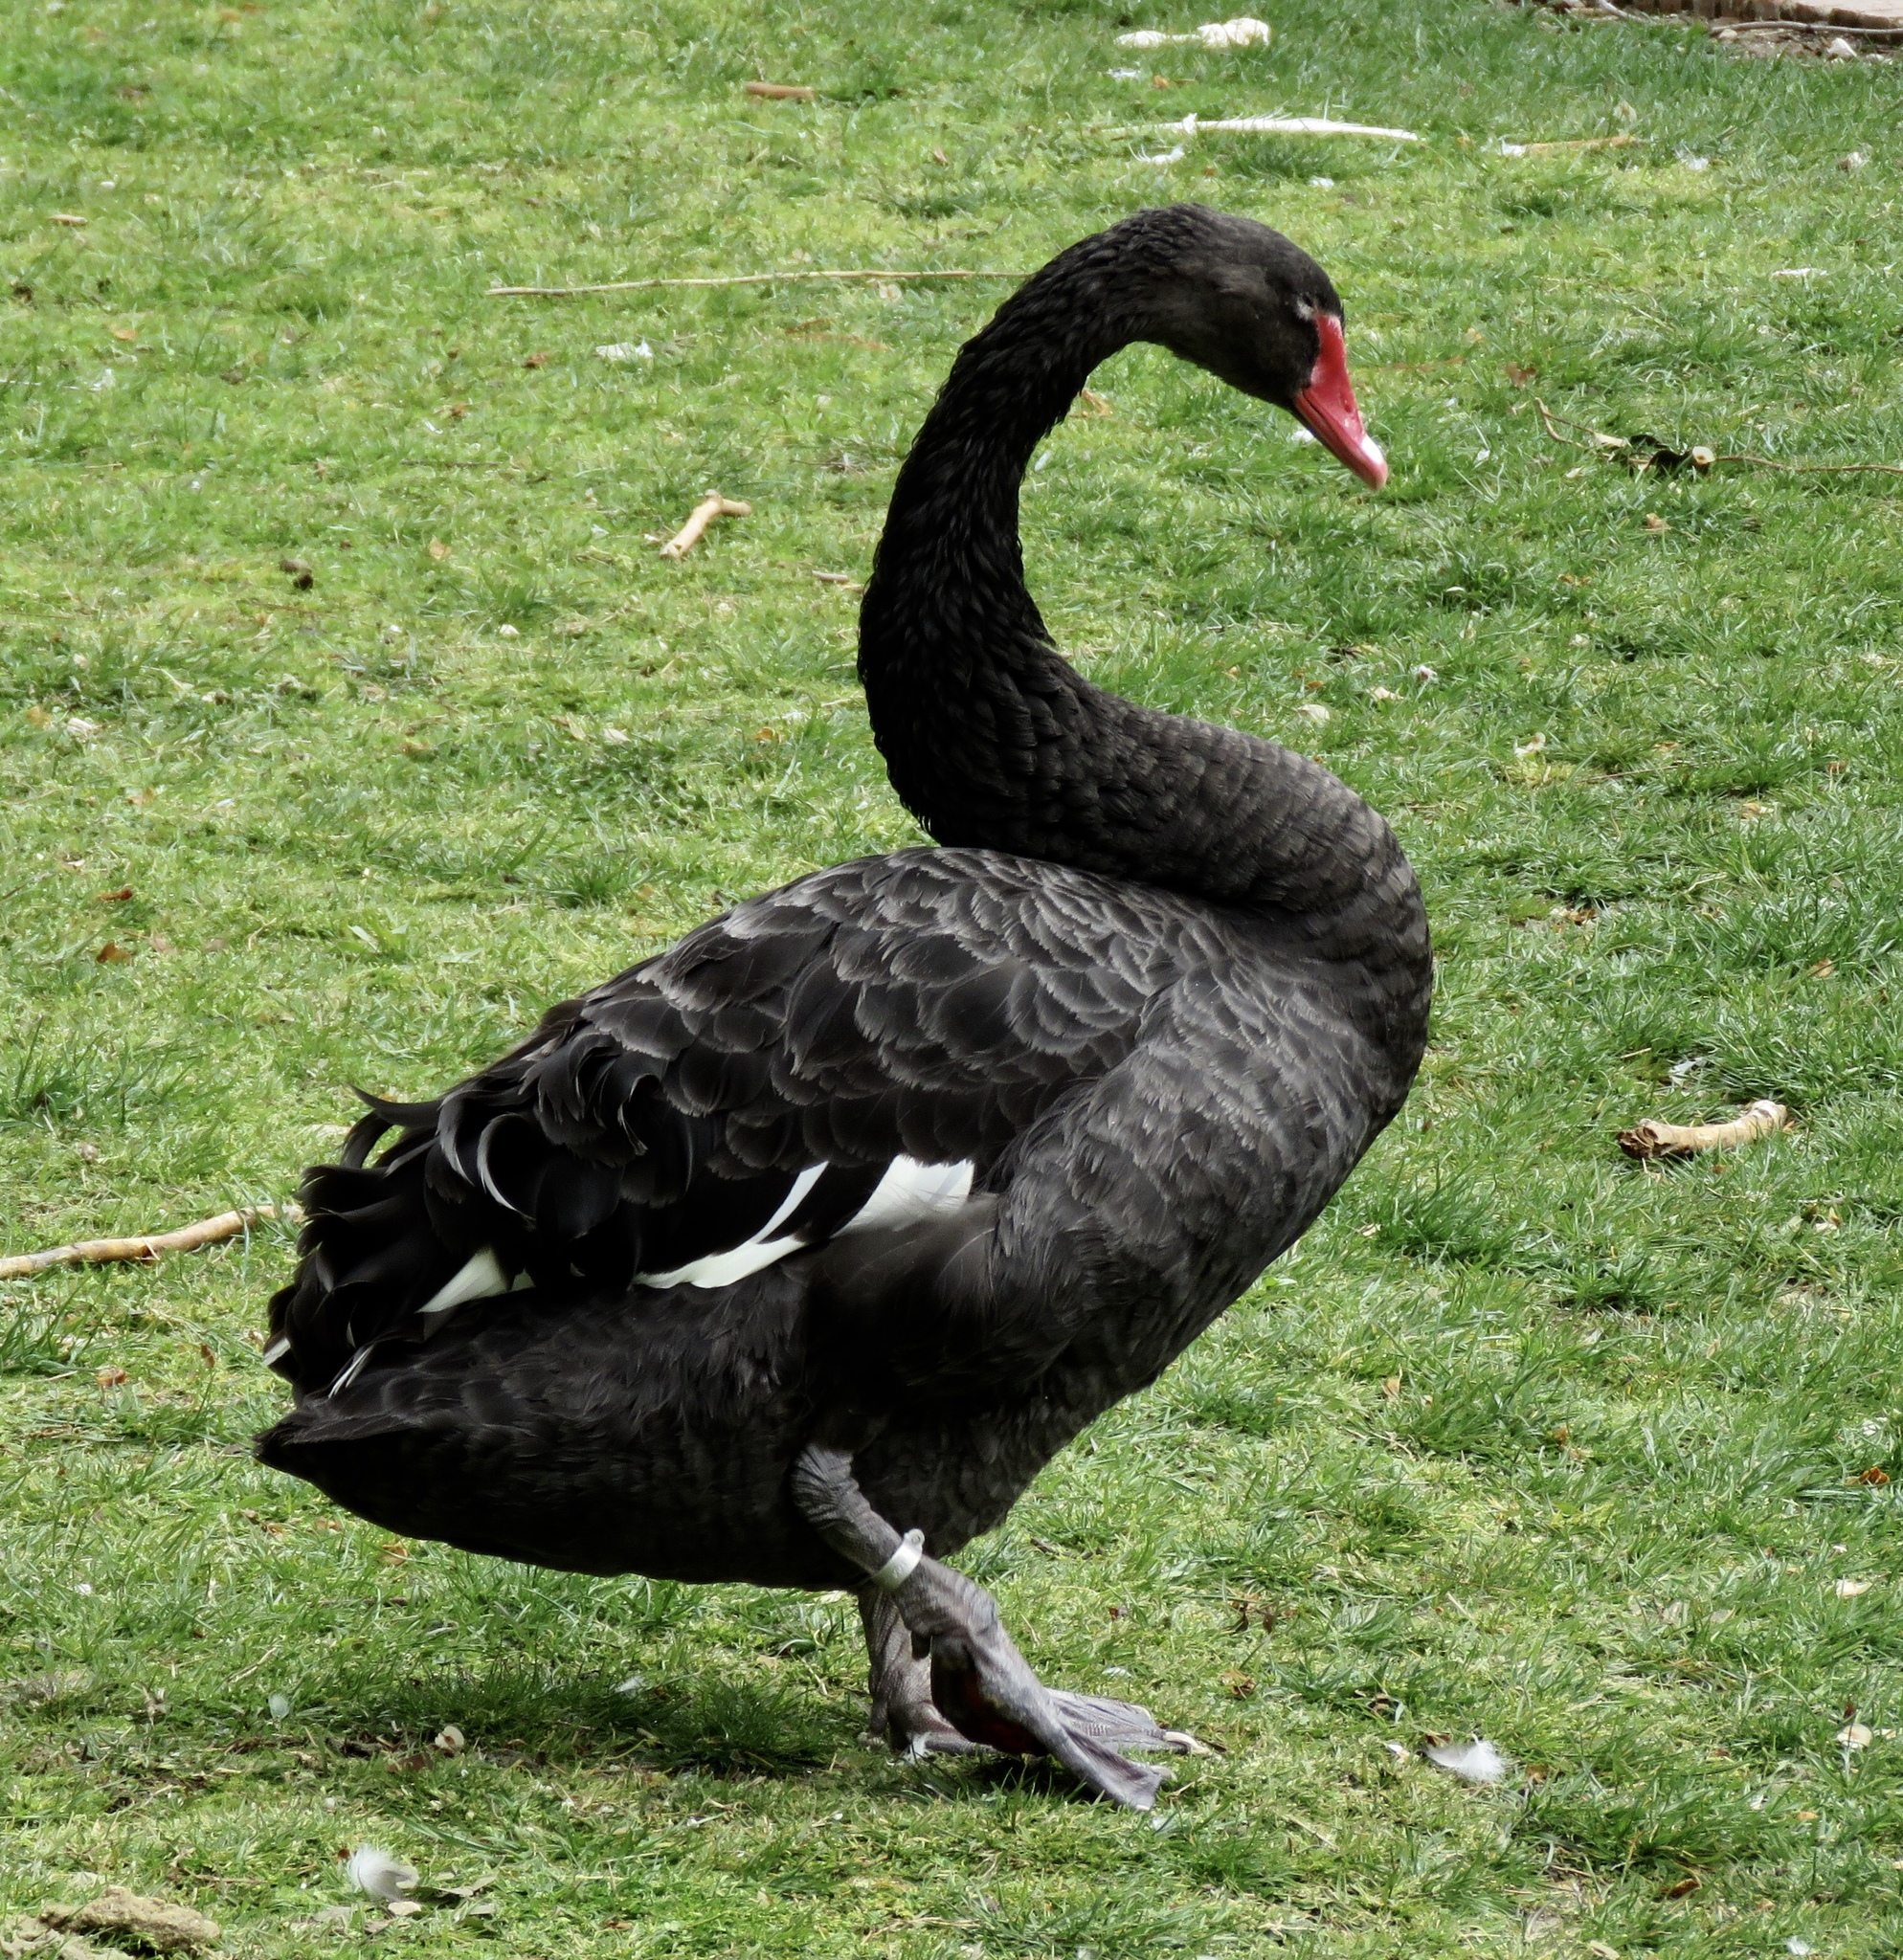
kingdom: Animalia
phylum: Chordata
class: Aves
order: Anseriformes
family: Anatidae
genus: Cygnus
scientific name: Cygnus atratus
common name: Black swan
